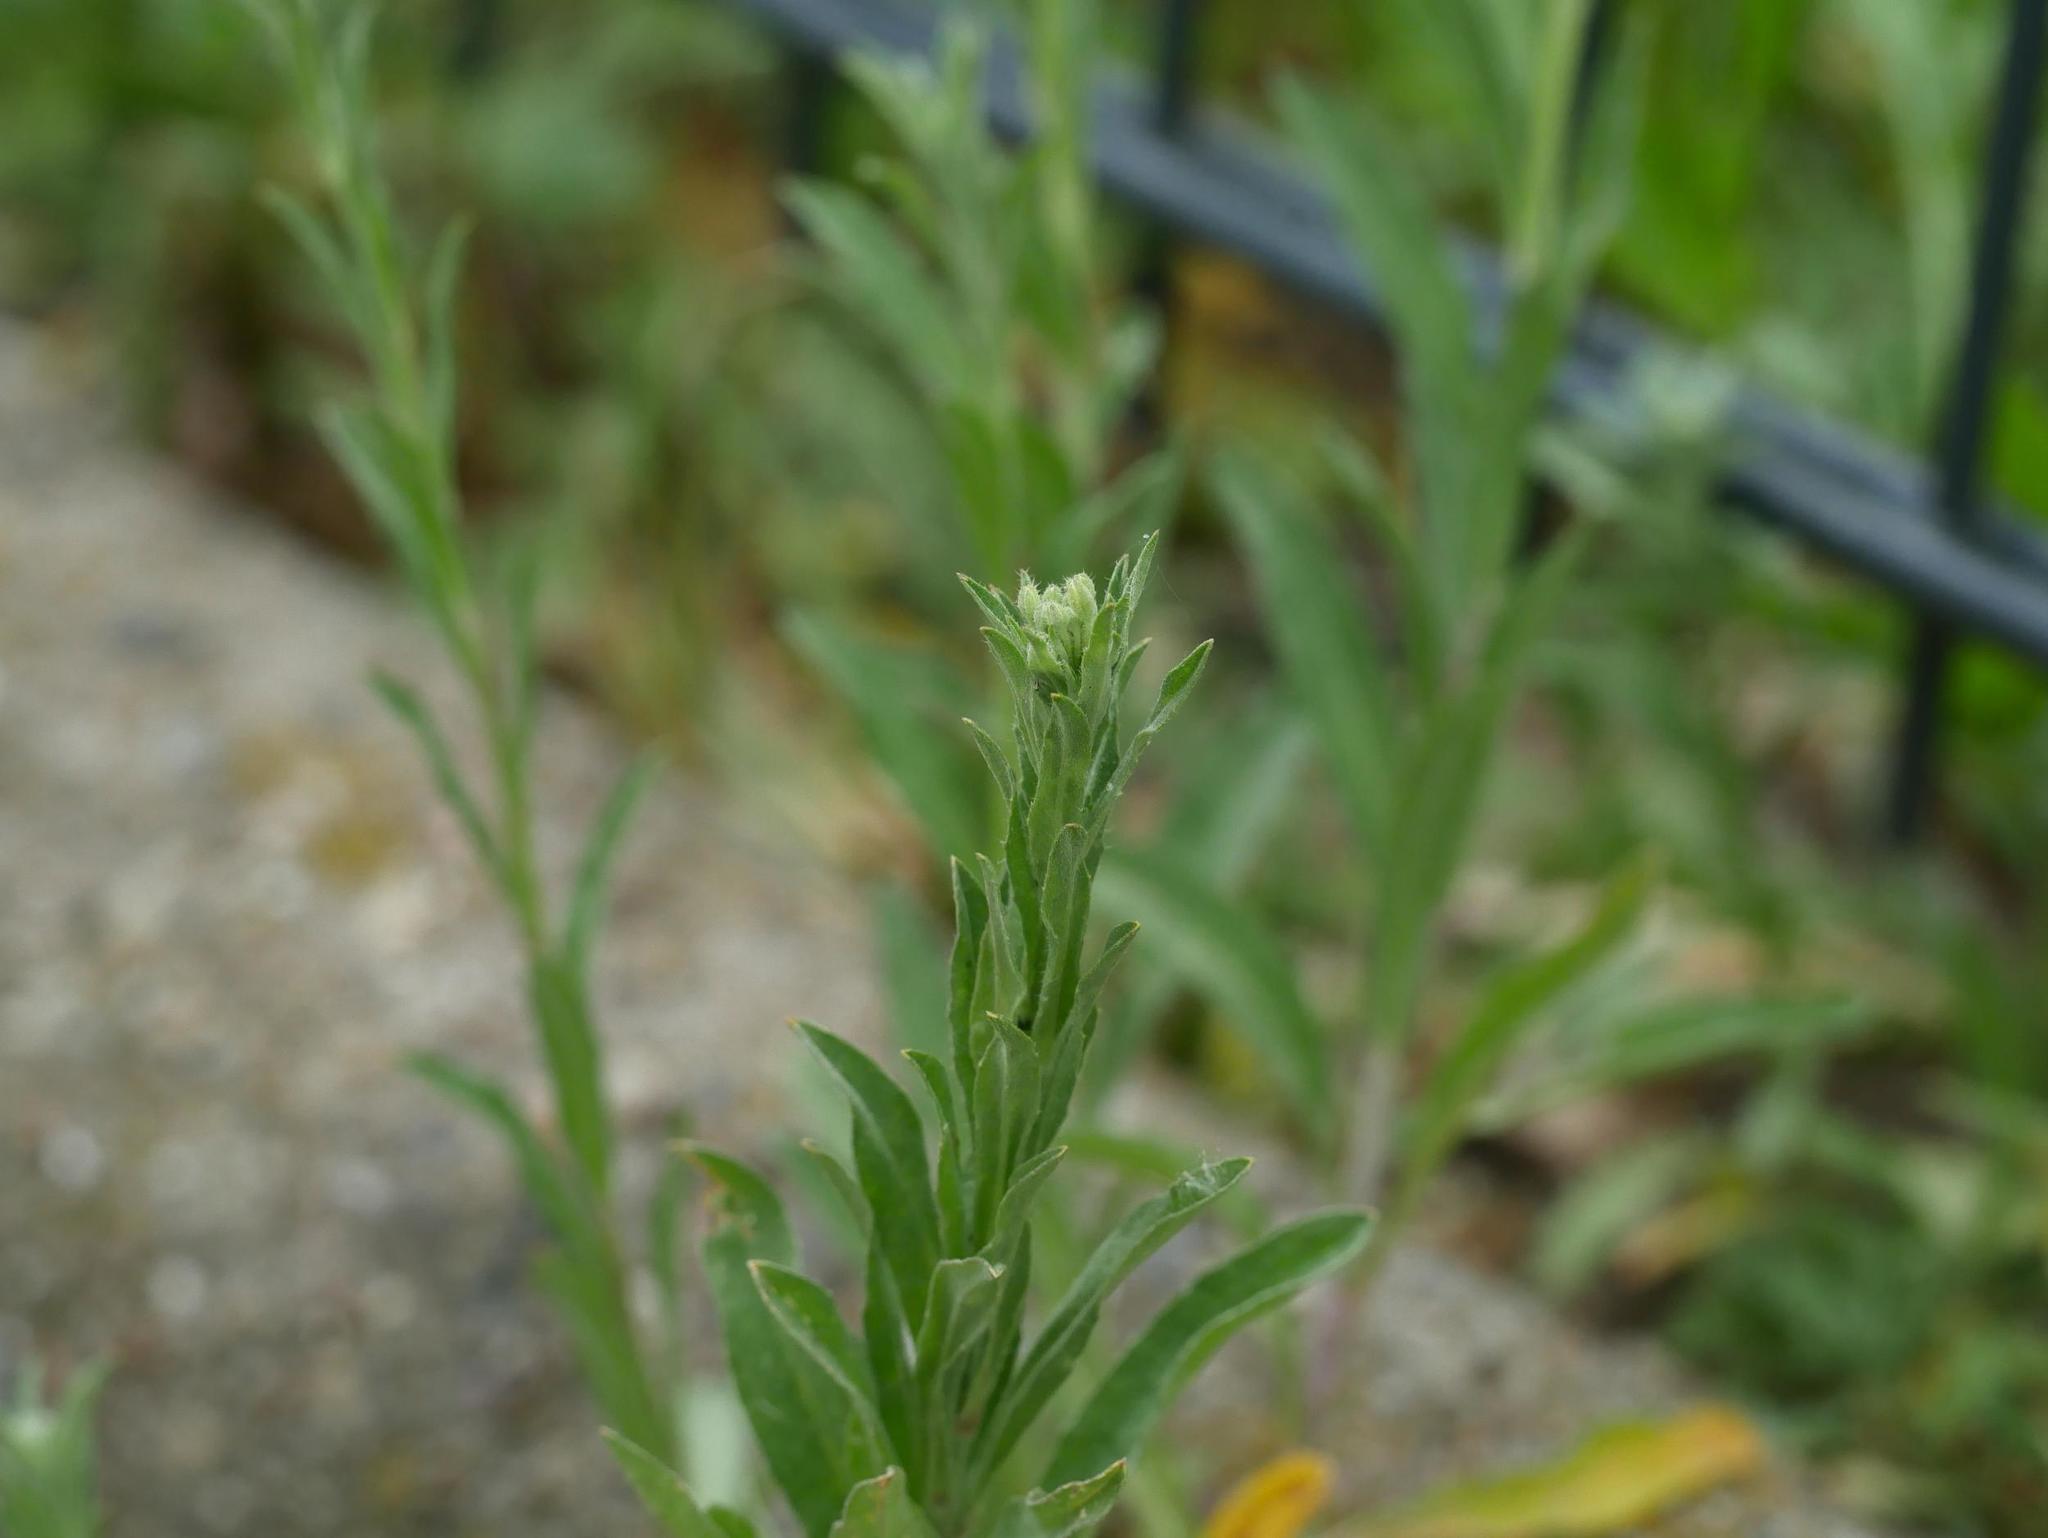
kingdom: Plantae
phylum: Tracheophyta
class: Magnoliopsida
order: Brassicales
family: Brassicaceae
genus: Berteroa
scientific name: Berteroa incana
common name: Hoary alison
